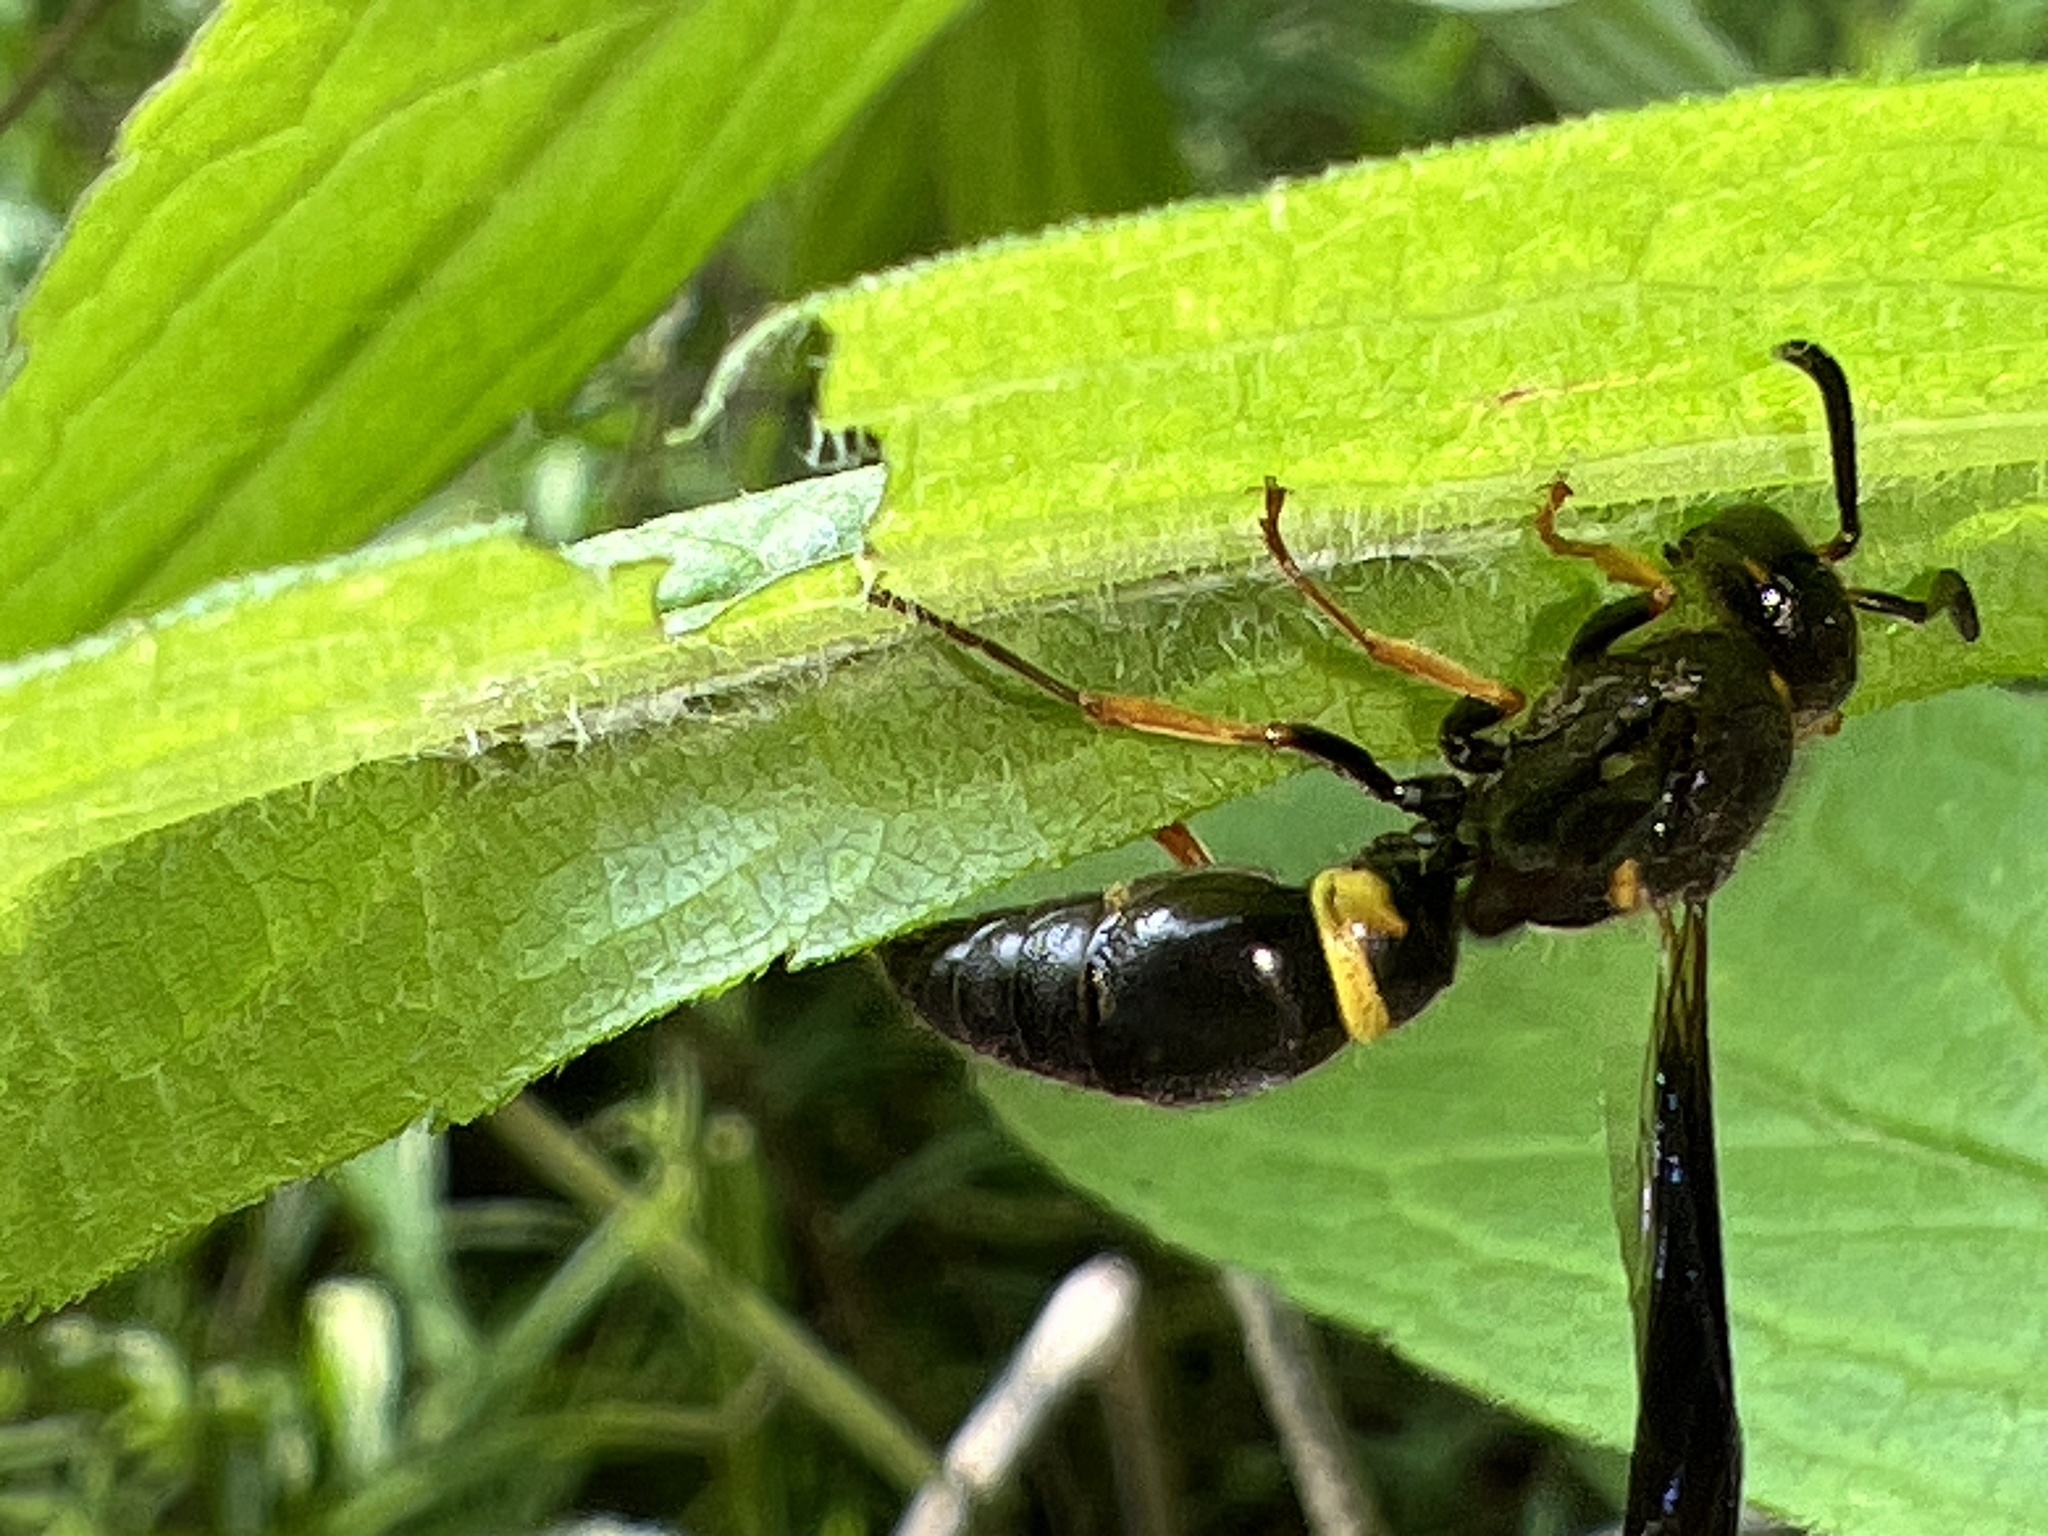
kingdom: Animalia
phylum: Arthropoda
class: Insecta
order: Hymenoptera
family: Vespidae
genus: Ancistrocerus
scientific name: Ancistrocerus unifasciatus
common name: One-banded mason wasp
